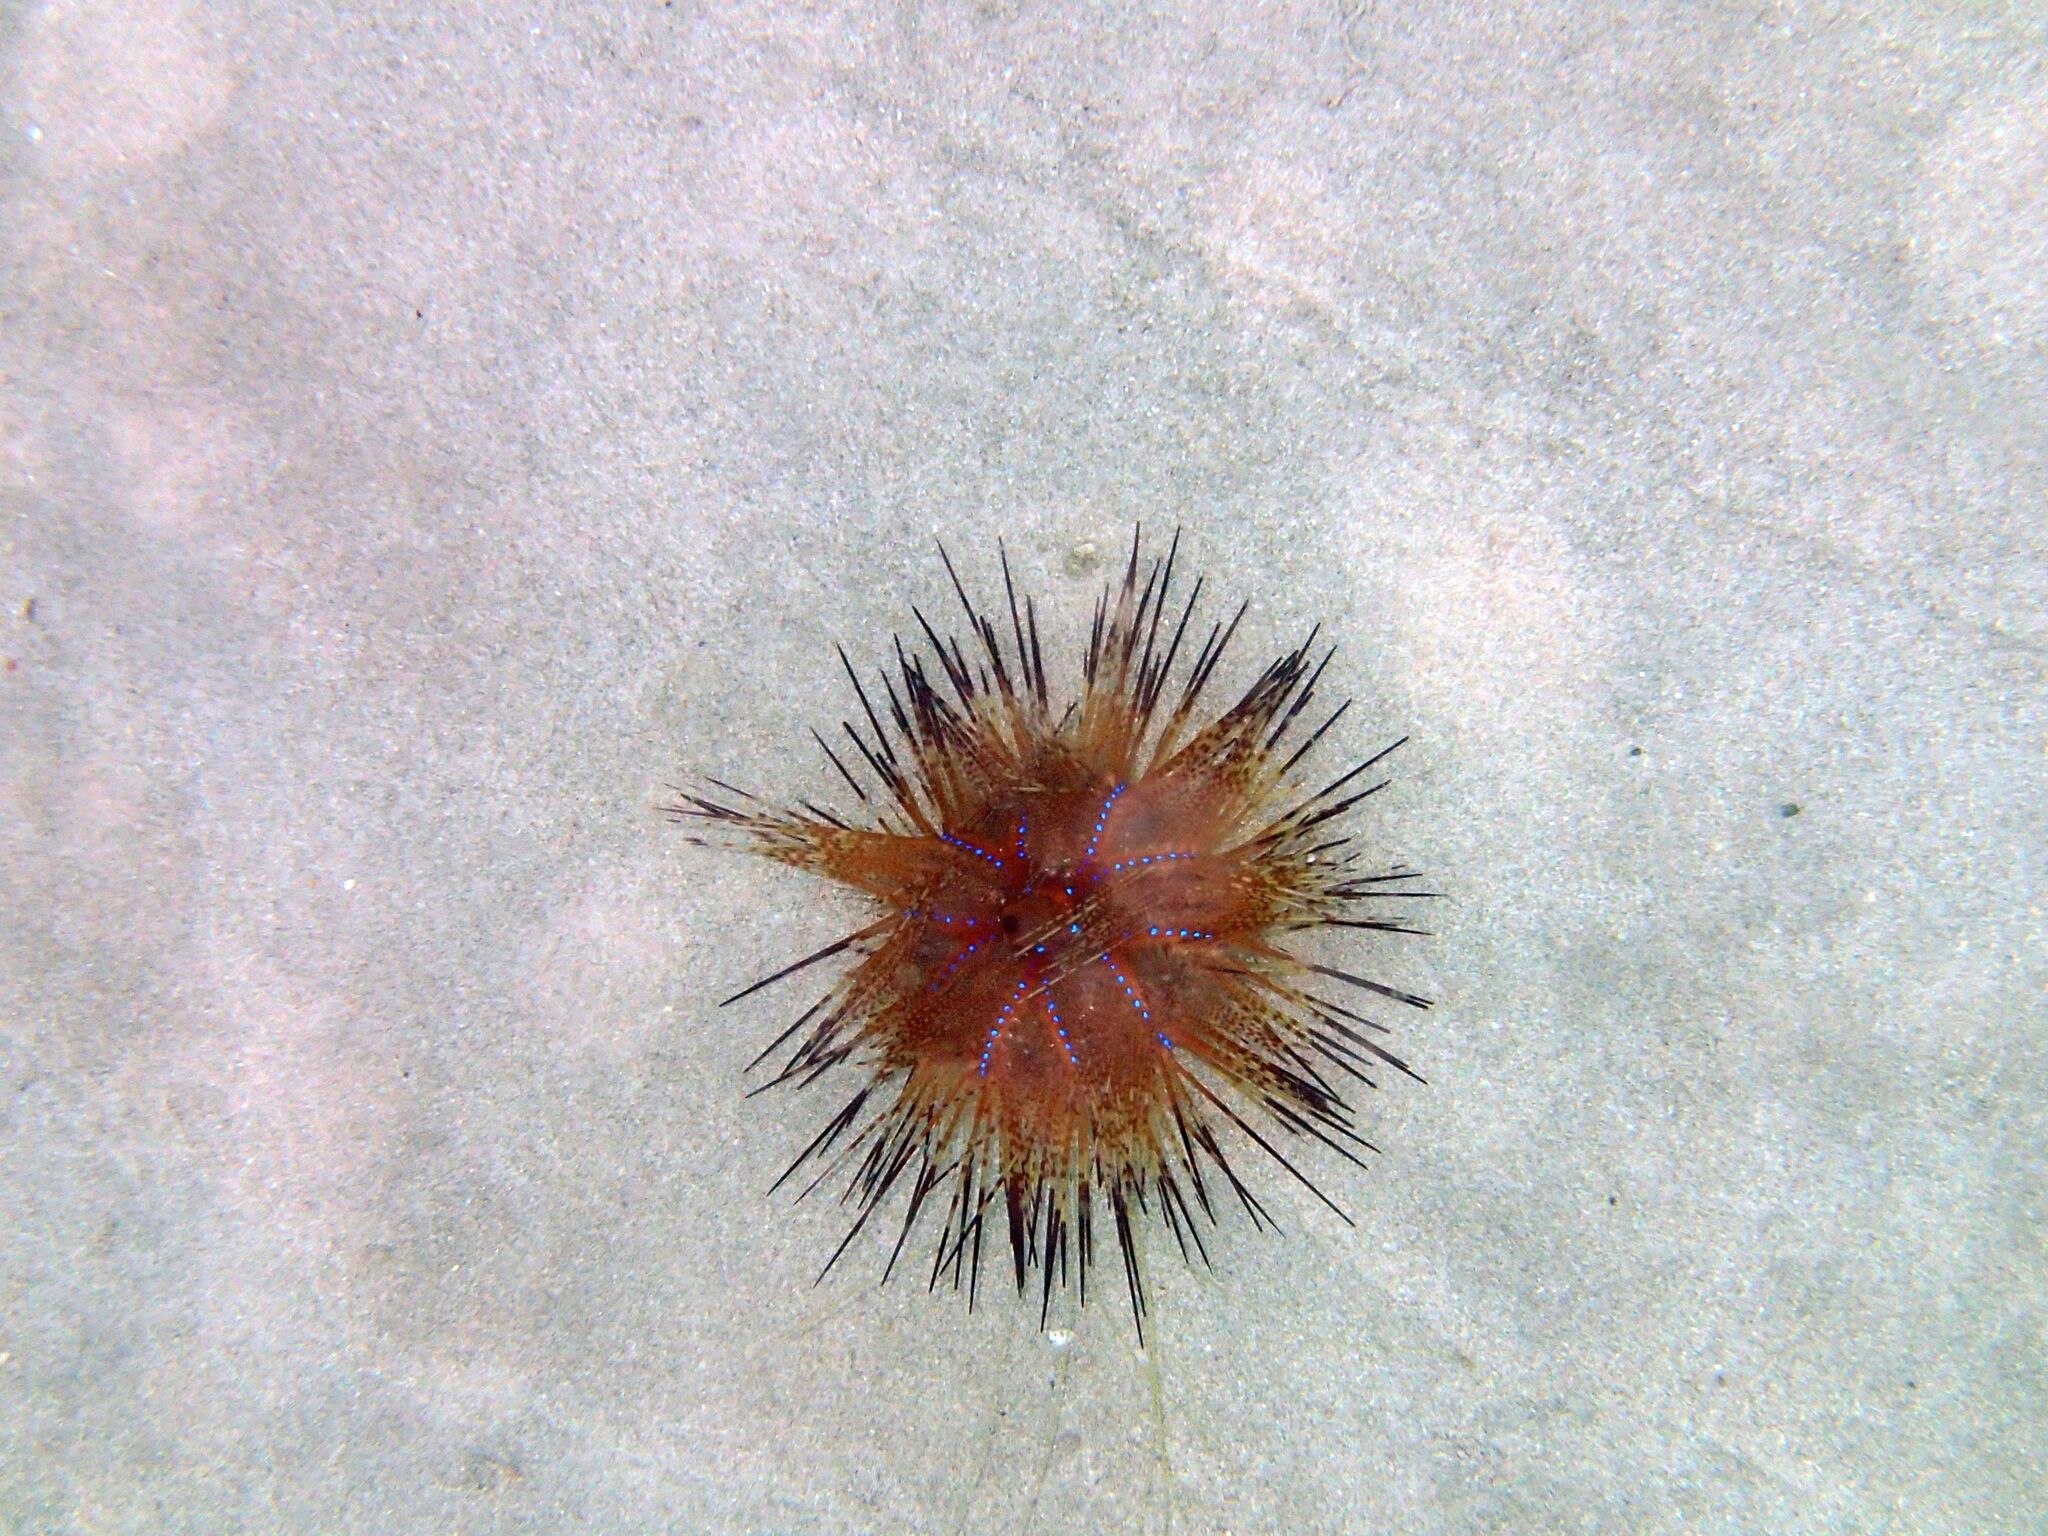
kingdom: Animalia
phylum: Echinodermata
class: Echinoidea
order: Diadematoida
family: Diadematidae
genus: Astropyga
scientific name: Astropyga radiata
